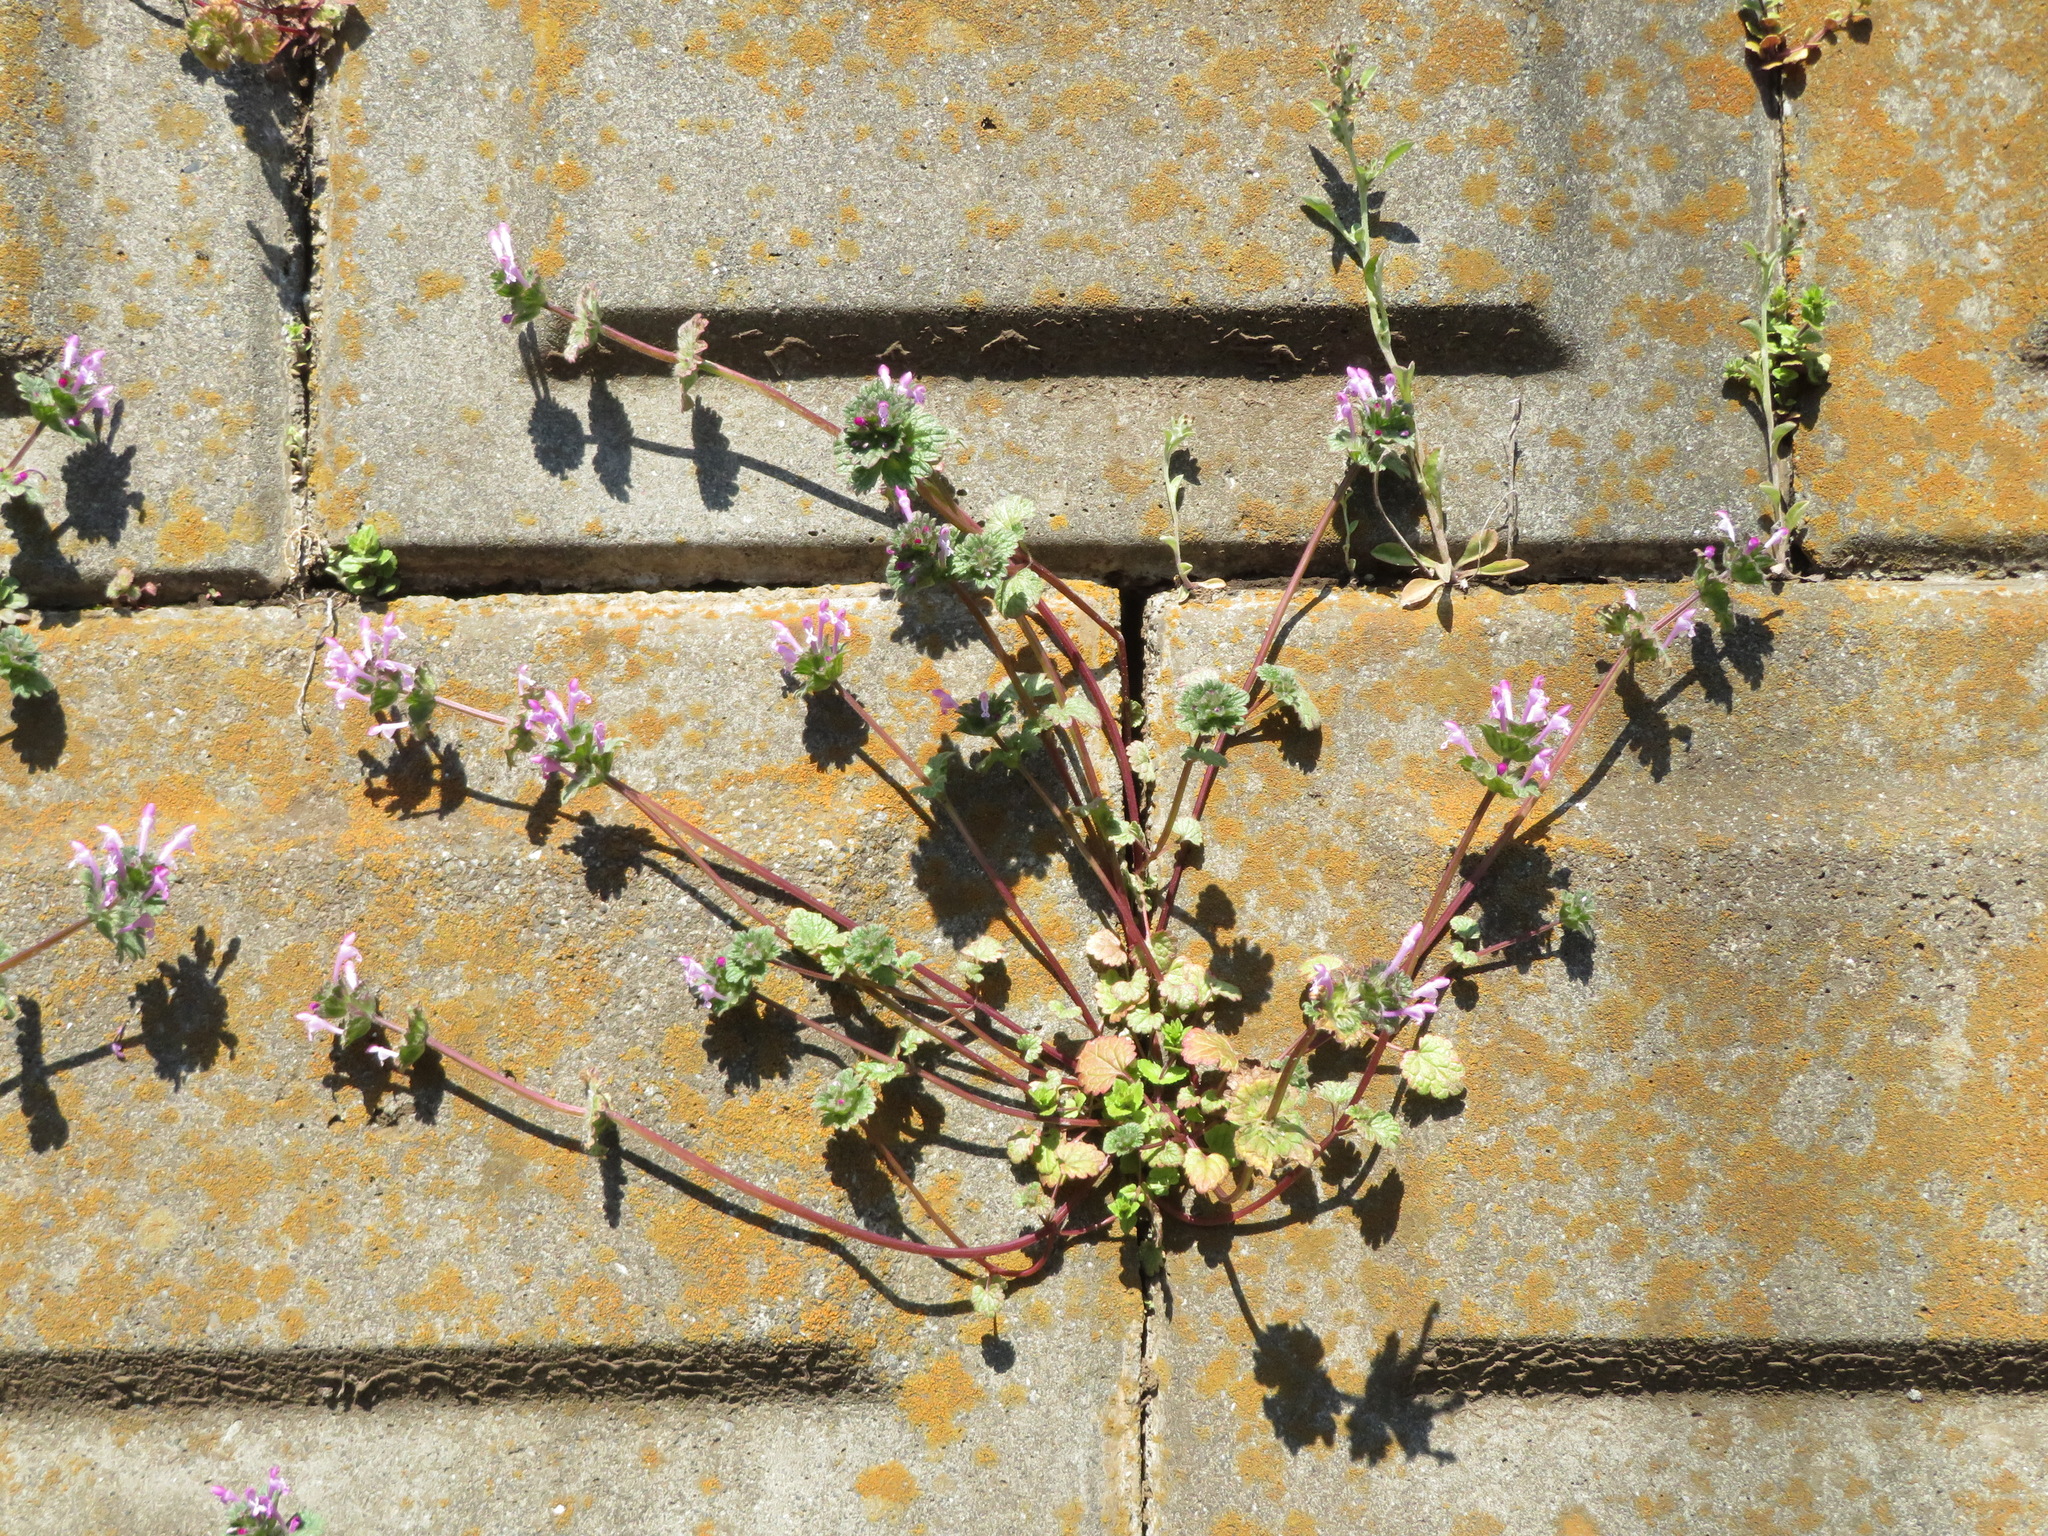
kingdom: Plantae
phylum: Tracheophyta
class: Magnoliopsida
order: Lamiales
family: Lamiaceae
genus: Lamium
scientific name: Lamium amplexicaule
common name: Henbit dead-nettle
